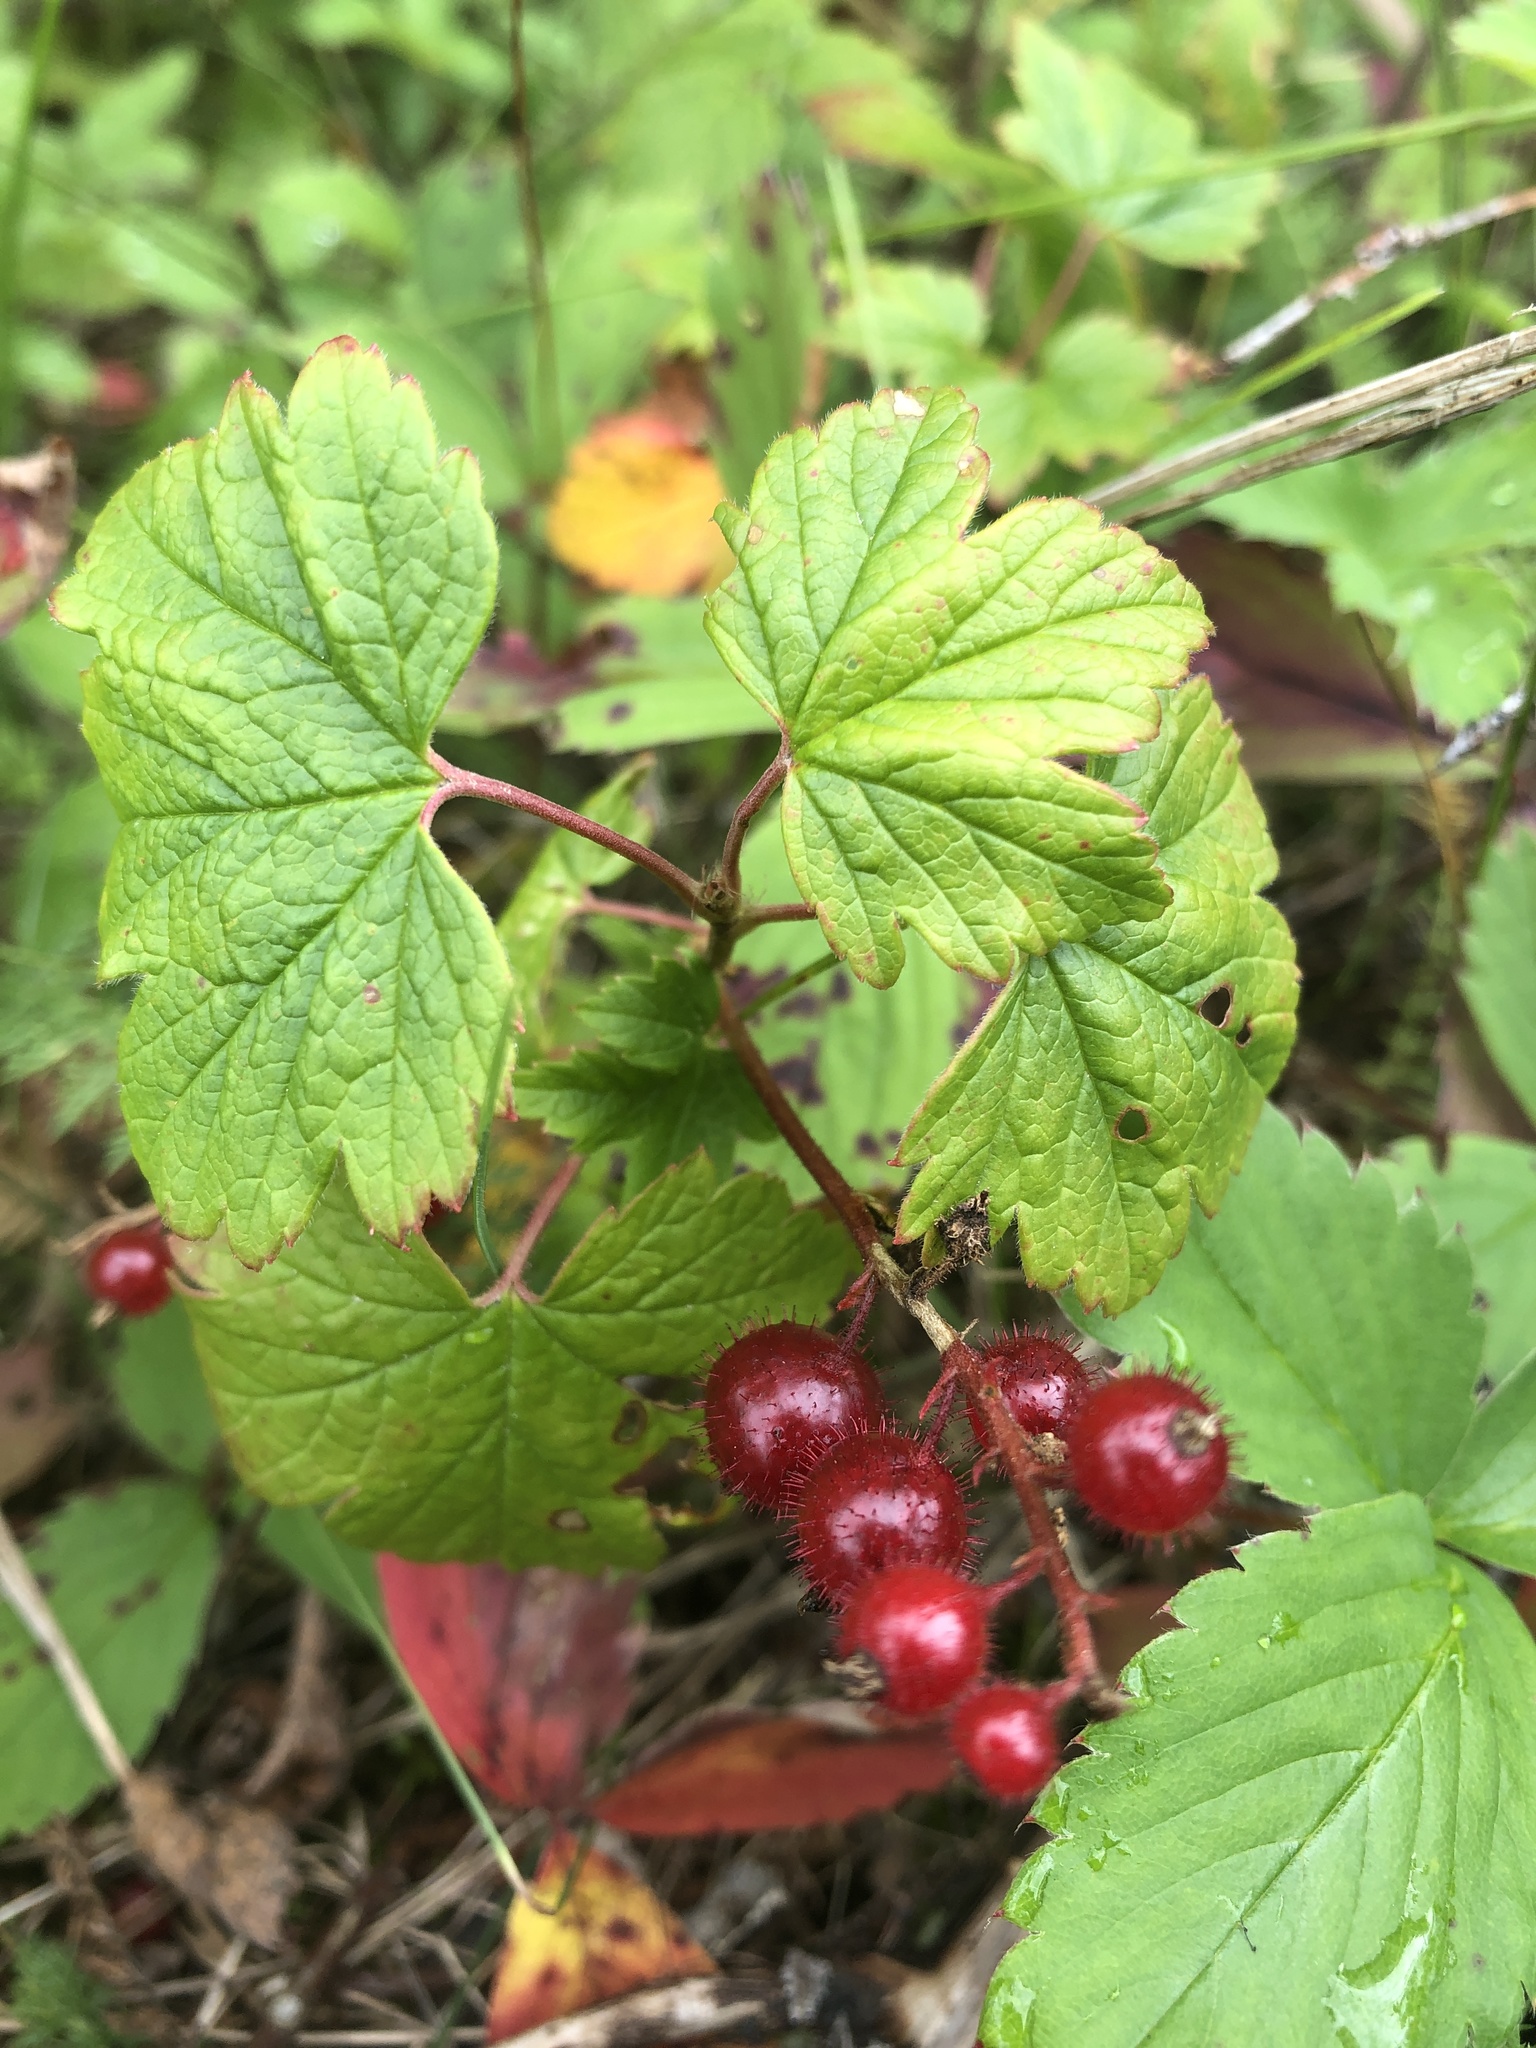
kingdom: Plantae
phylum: Tracheophyta
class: Magnoliopsida
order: Saxifragales
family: Grossulariaceae
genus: Ribes
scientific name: Ribes glandulosum
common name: Skunk currant
